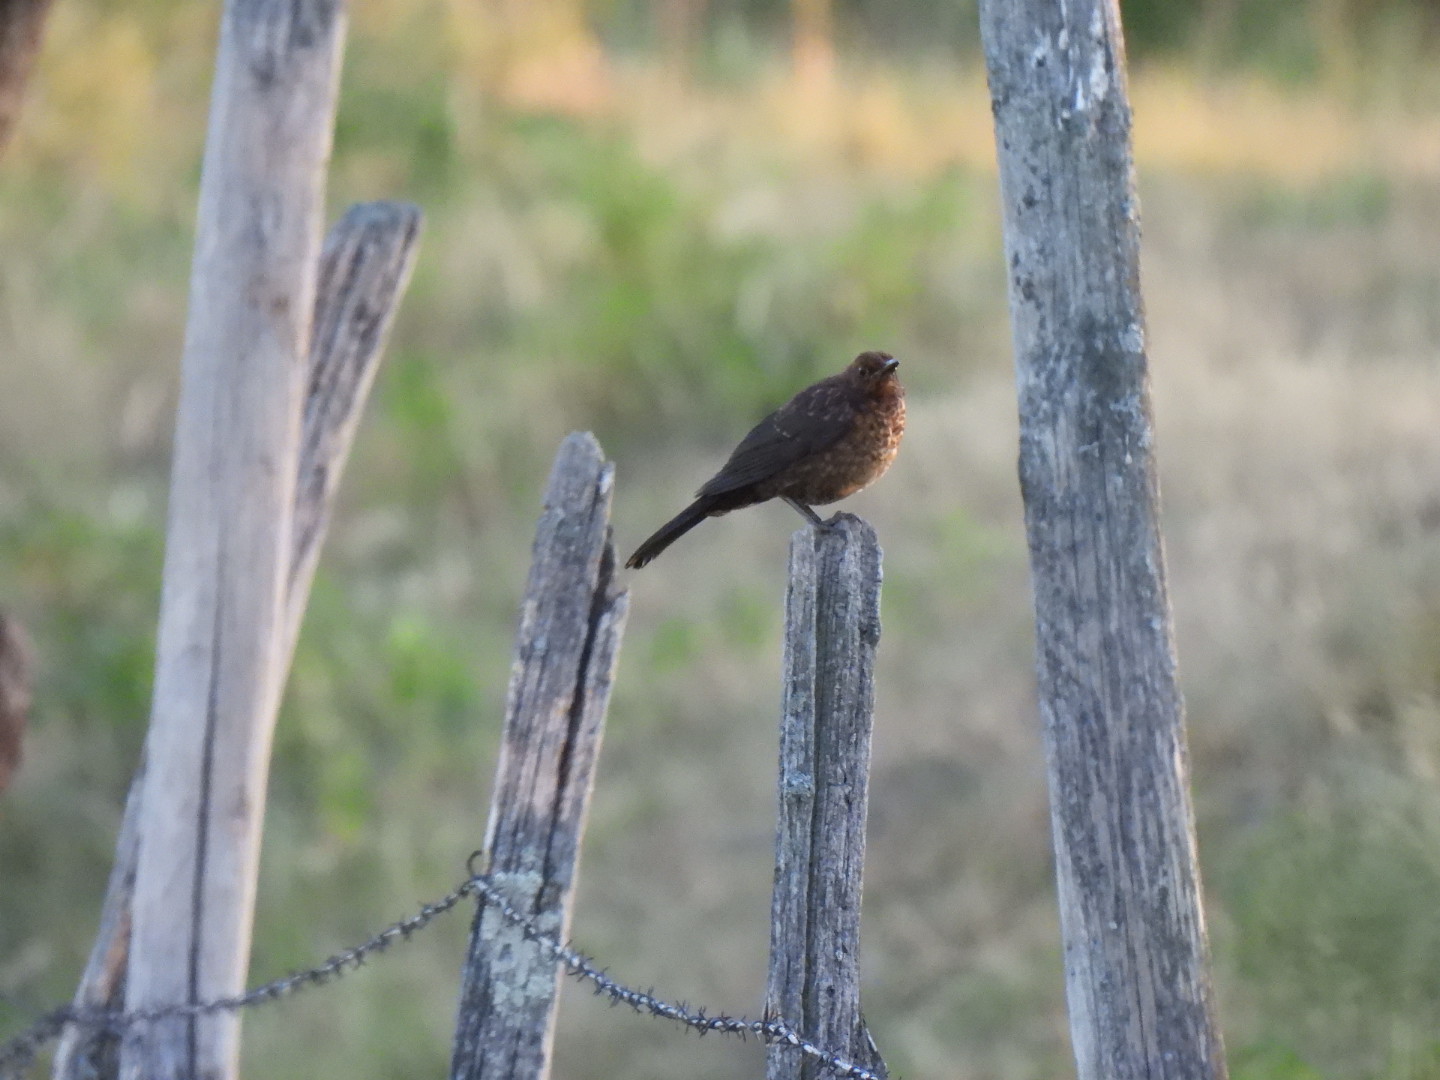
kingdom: Animalia
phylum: Chordata
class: Aves
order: Passeriformes
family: Turdidae
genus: Turdus
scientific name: Turdus merula
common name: Common blackbird
